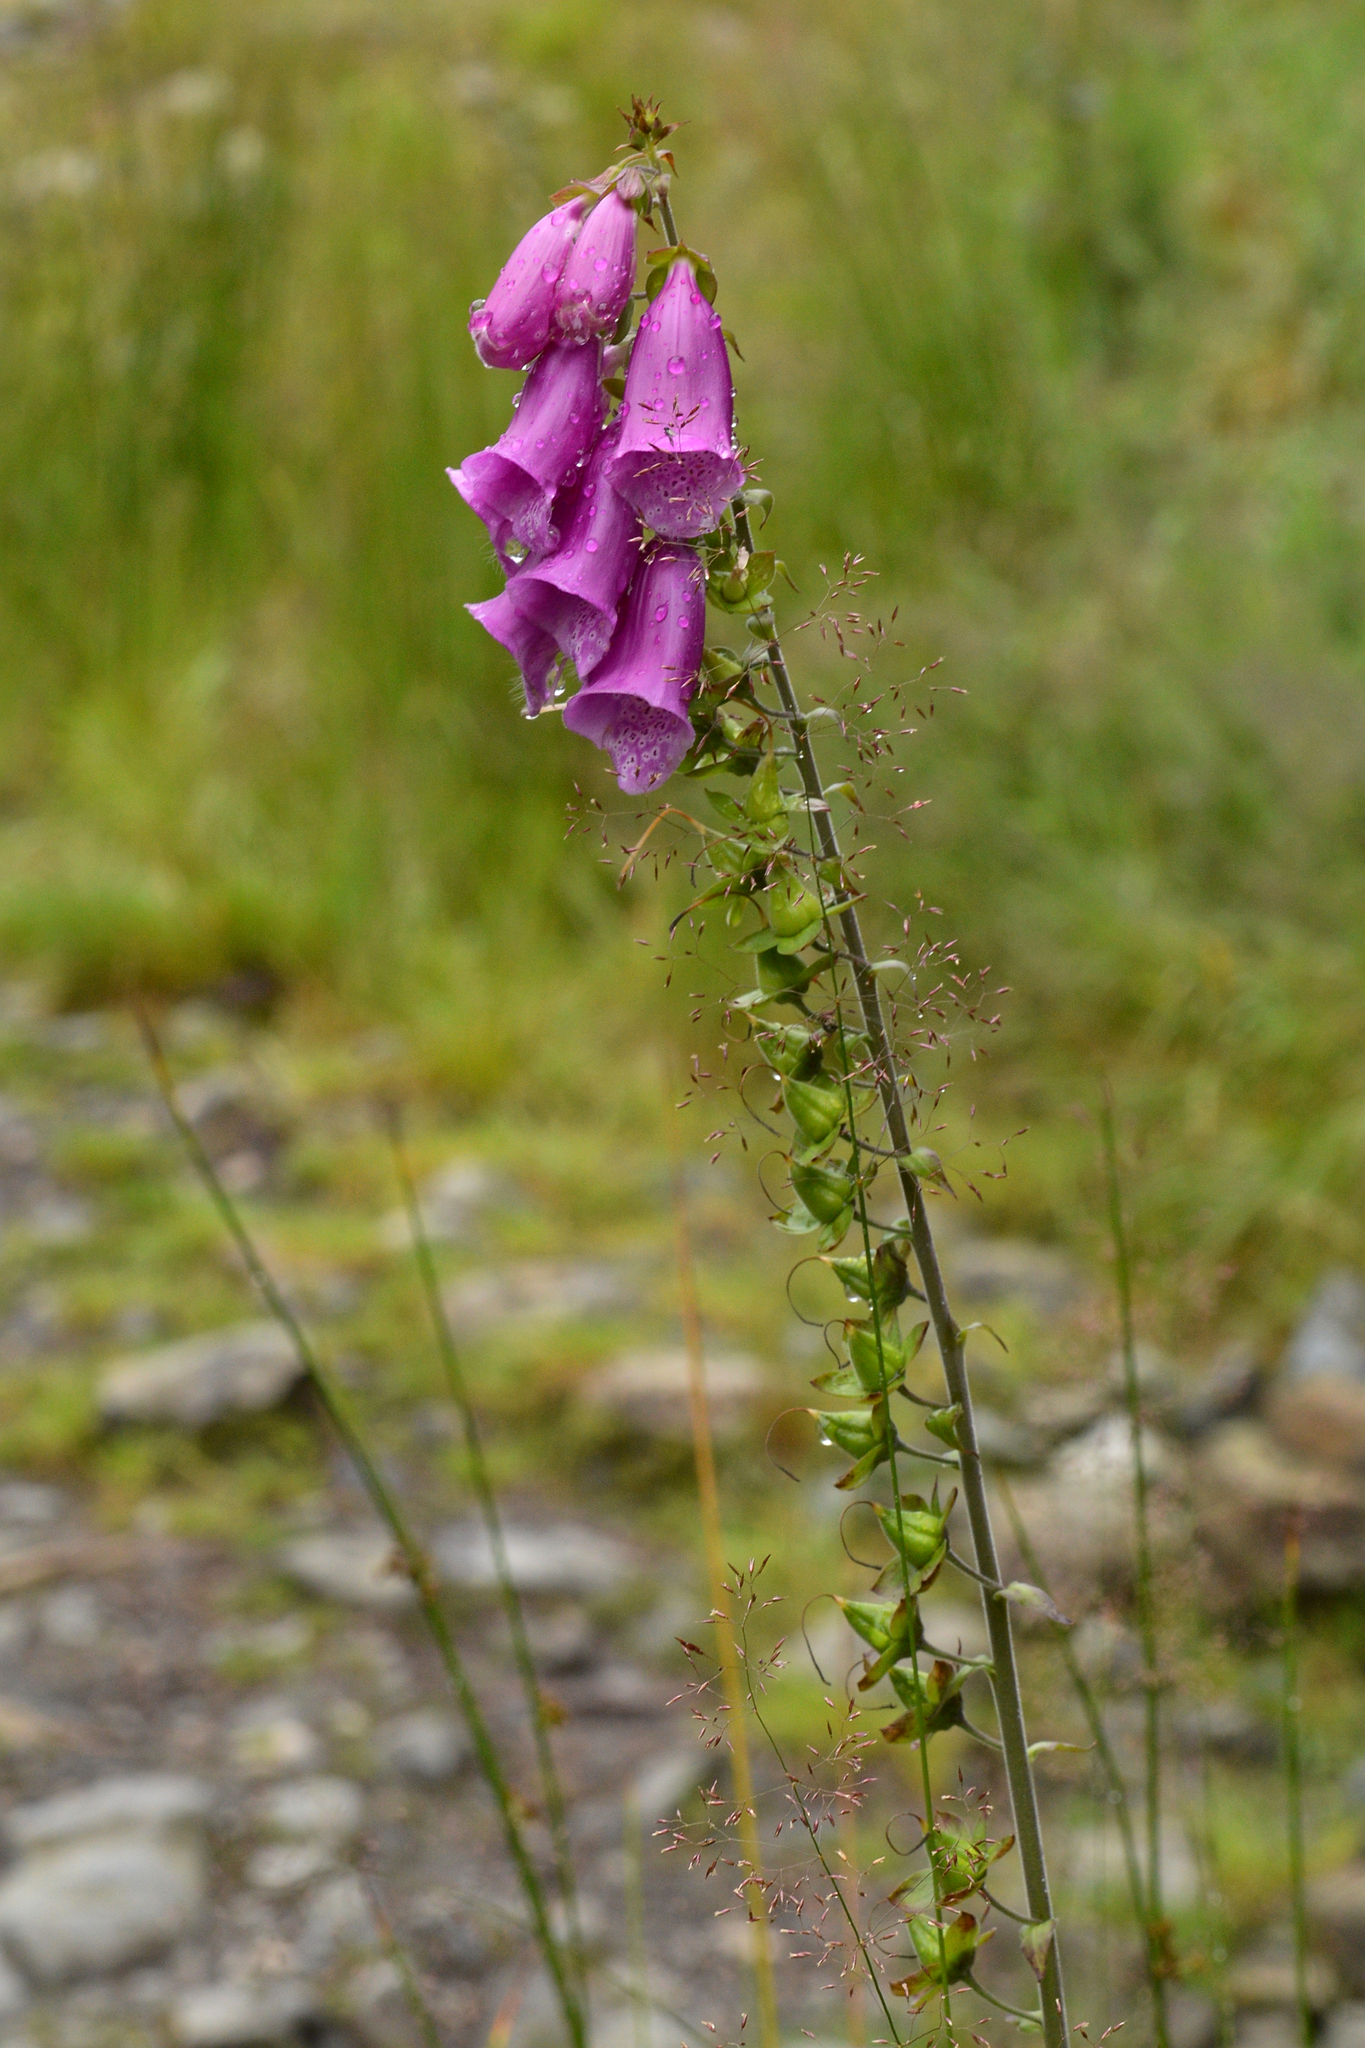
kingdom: Plantae
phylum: Tracheophyta
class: Magnoliopsida
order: Lamiales
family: Plantaginaceae
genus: Digitalis
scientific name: Digitalis purpurea
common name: Foxglove
